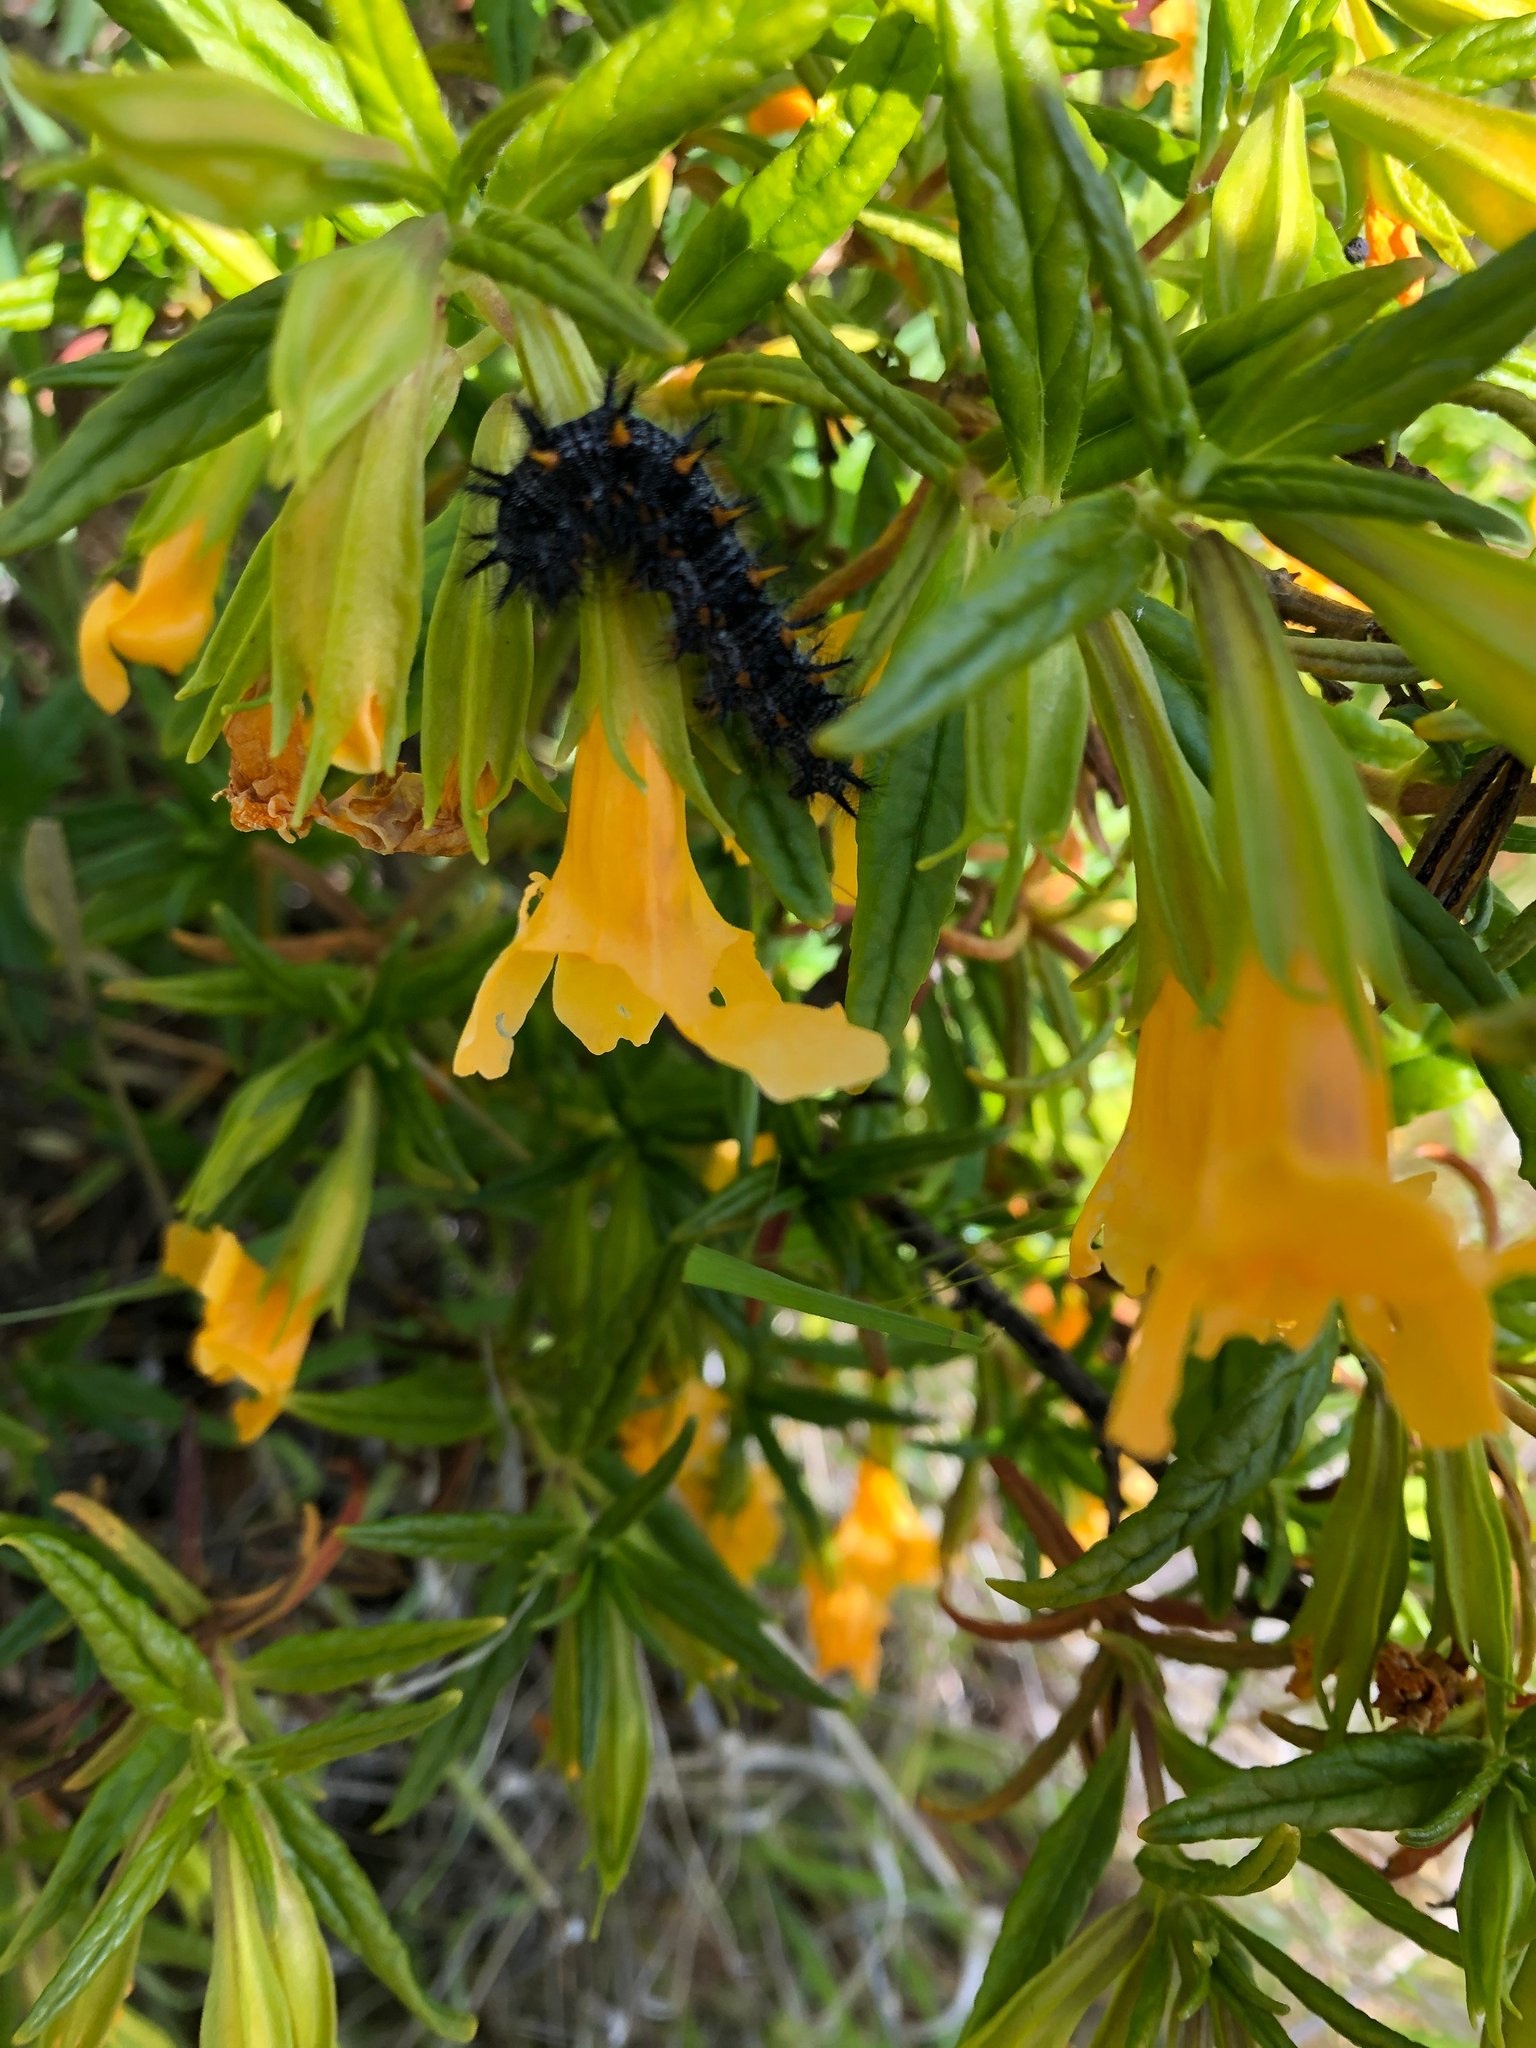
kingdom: Plantae
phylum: Tracheophyta
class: Magnoliopsida
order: Lamiales
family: Phrymaceae
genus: Diplacus
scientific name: Diplacus aurantiacus
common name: Bush monkey-flower
